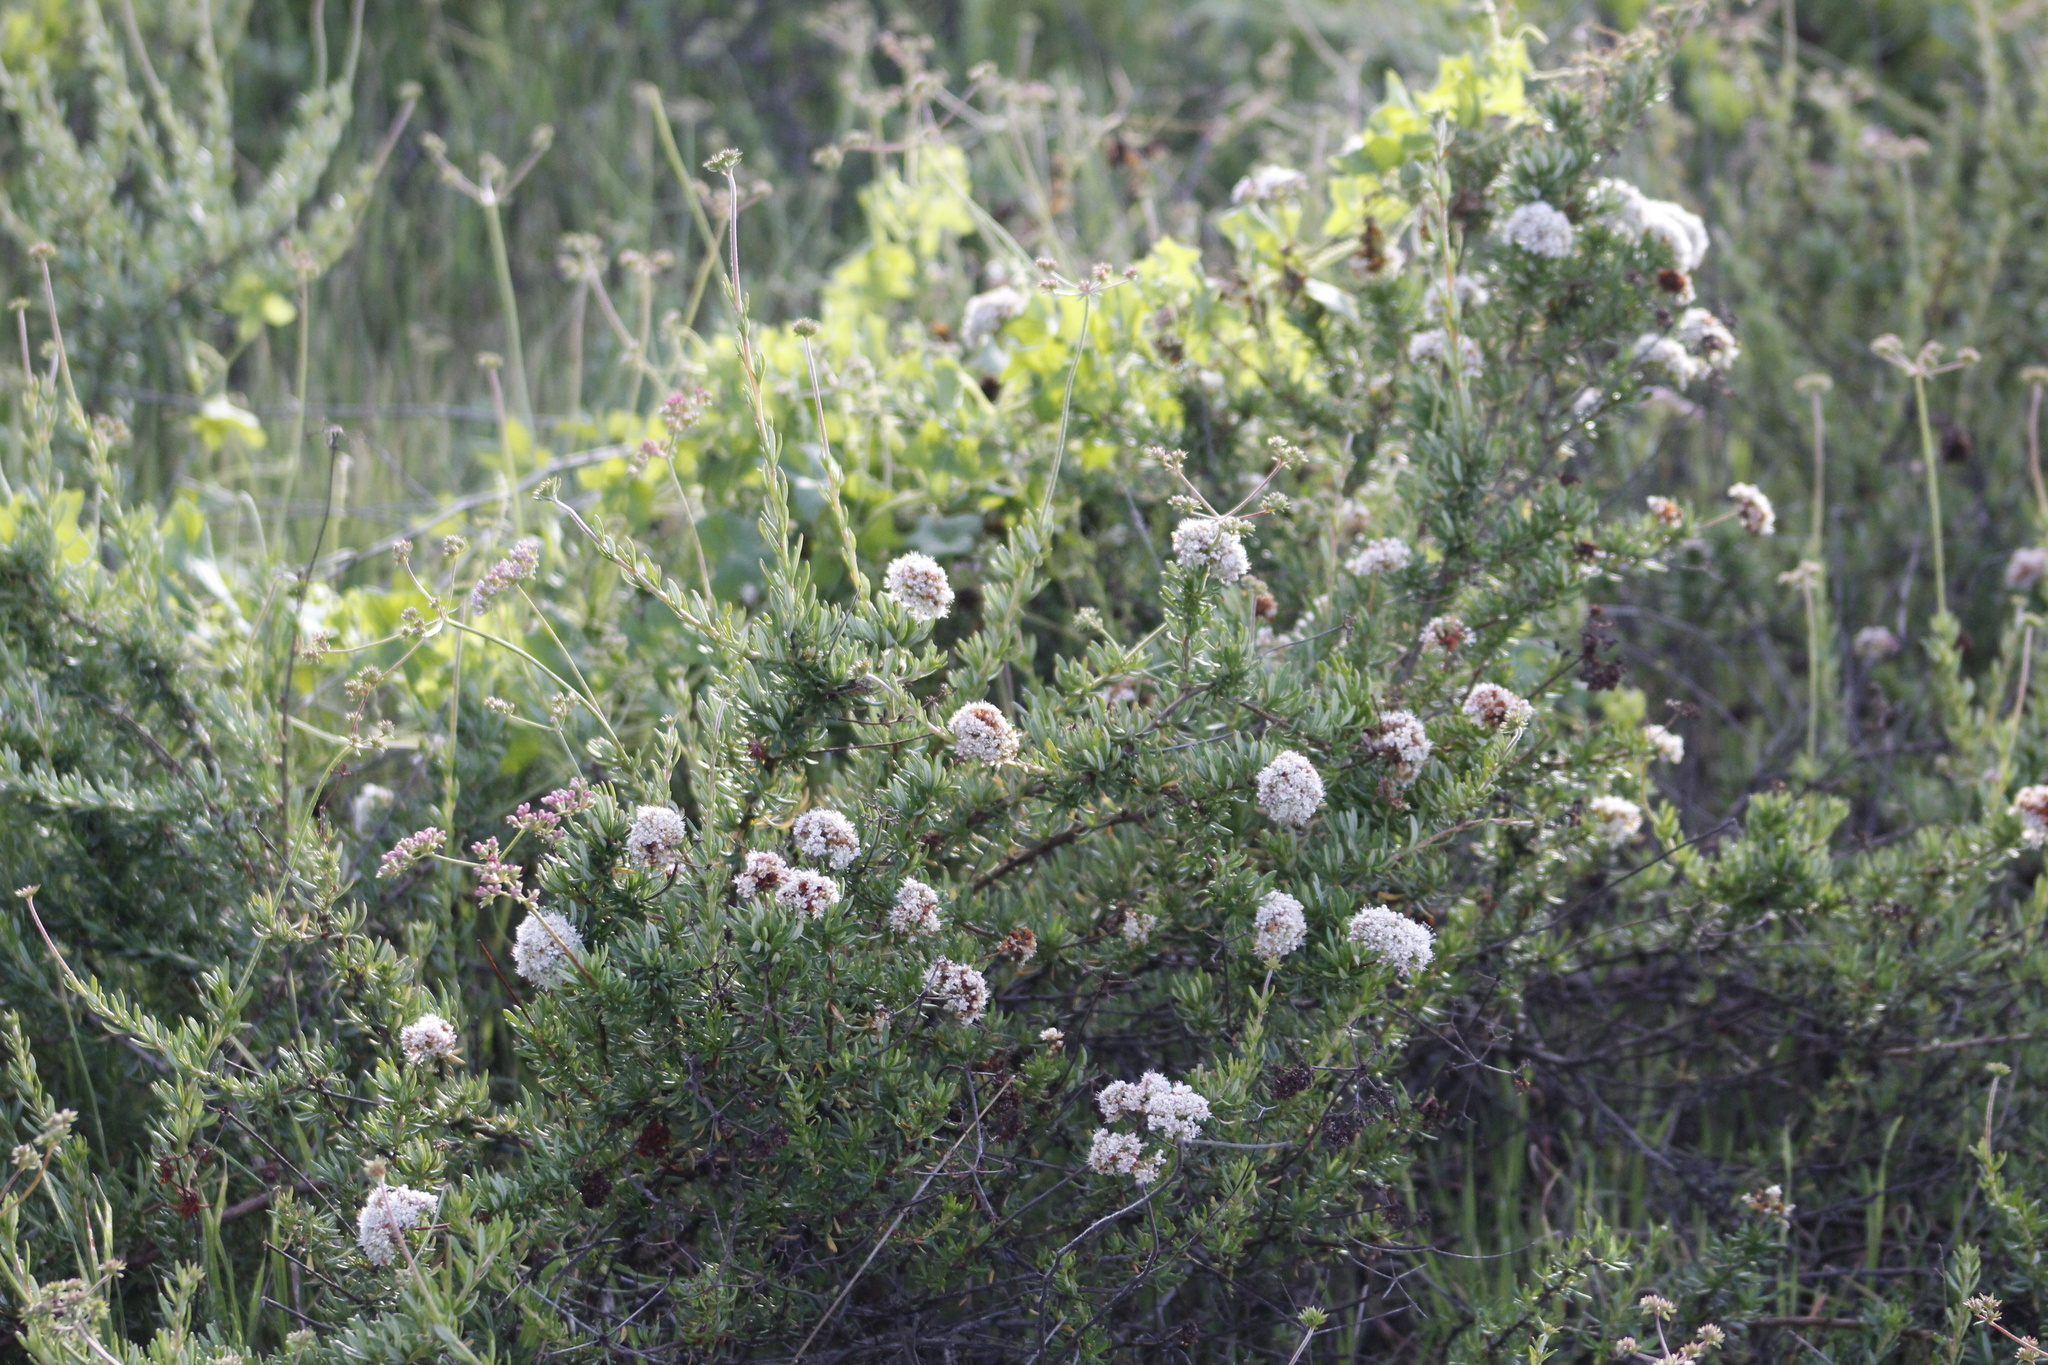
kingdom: Plantae
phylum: Tracheophyta
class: Magnoliopsida
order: Caryophyllales
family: Polygonaceae
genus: Eriogonum
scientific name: Eriogonum fasciculatum
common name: California wild buckwheat
